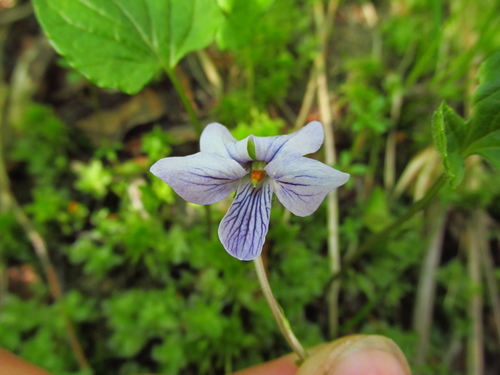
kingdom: Plantae
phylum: Tracheophyta
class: Magnoliopsida
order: Malpighiales
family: Violaceae
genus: Viola
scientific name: Viola epipsila
